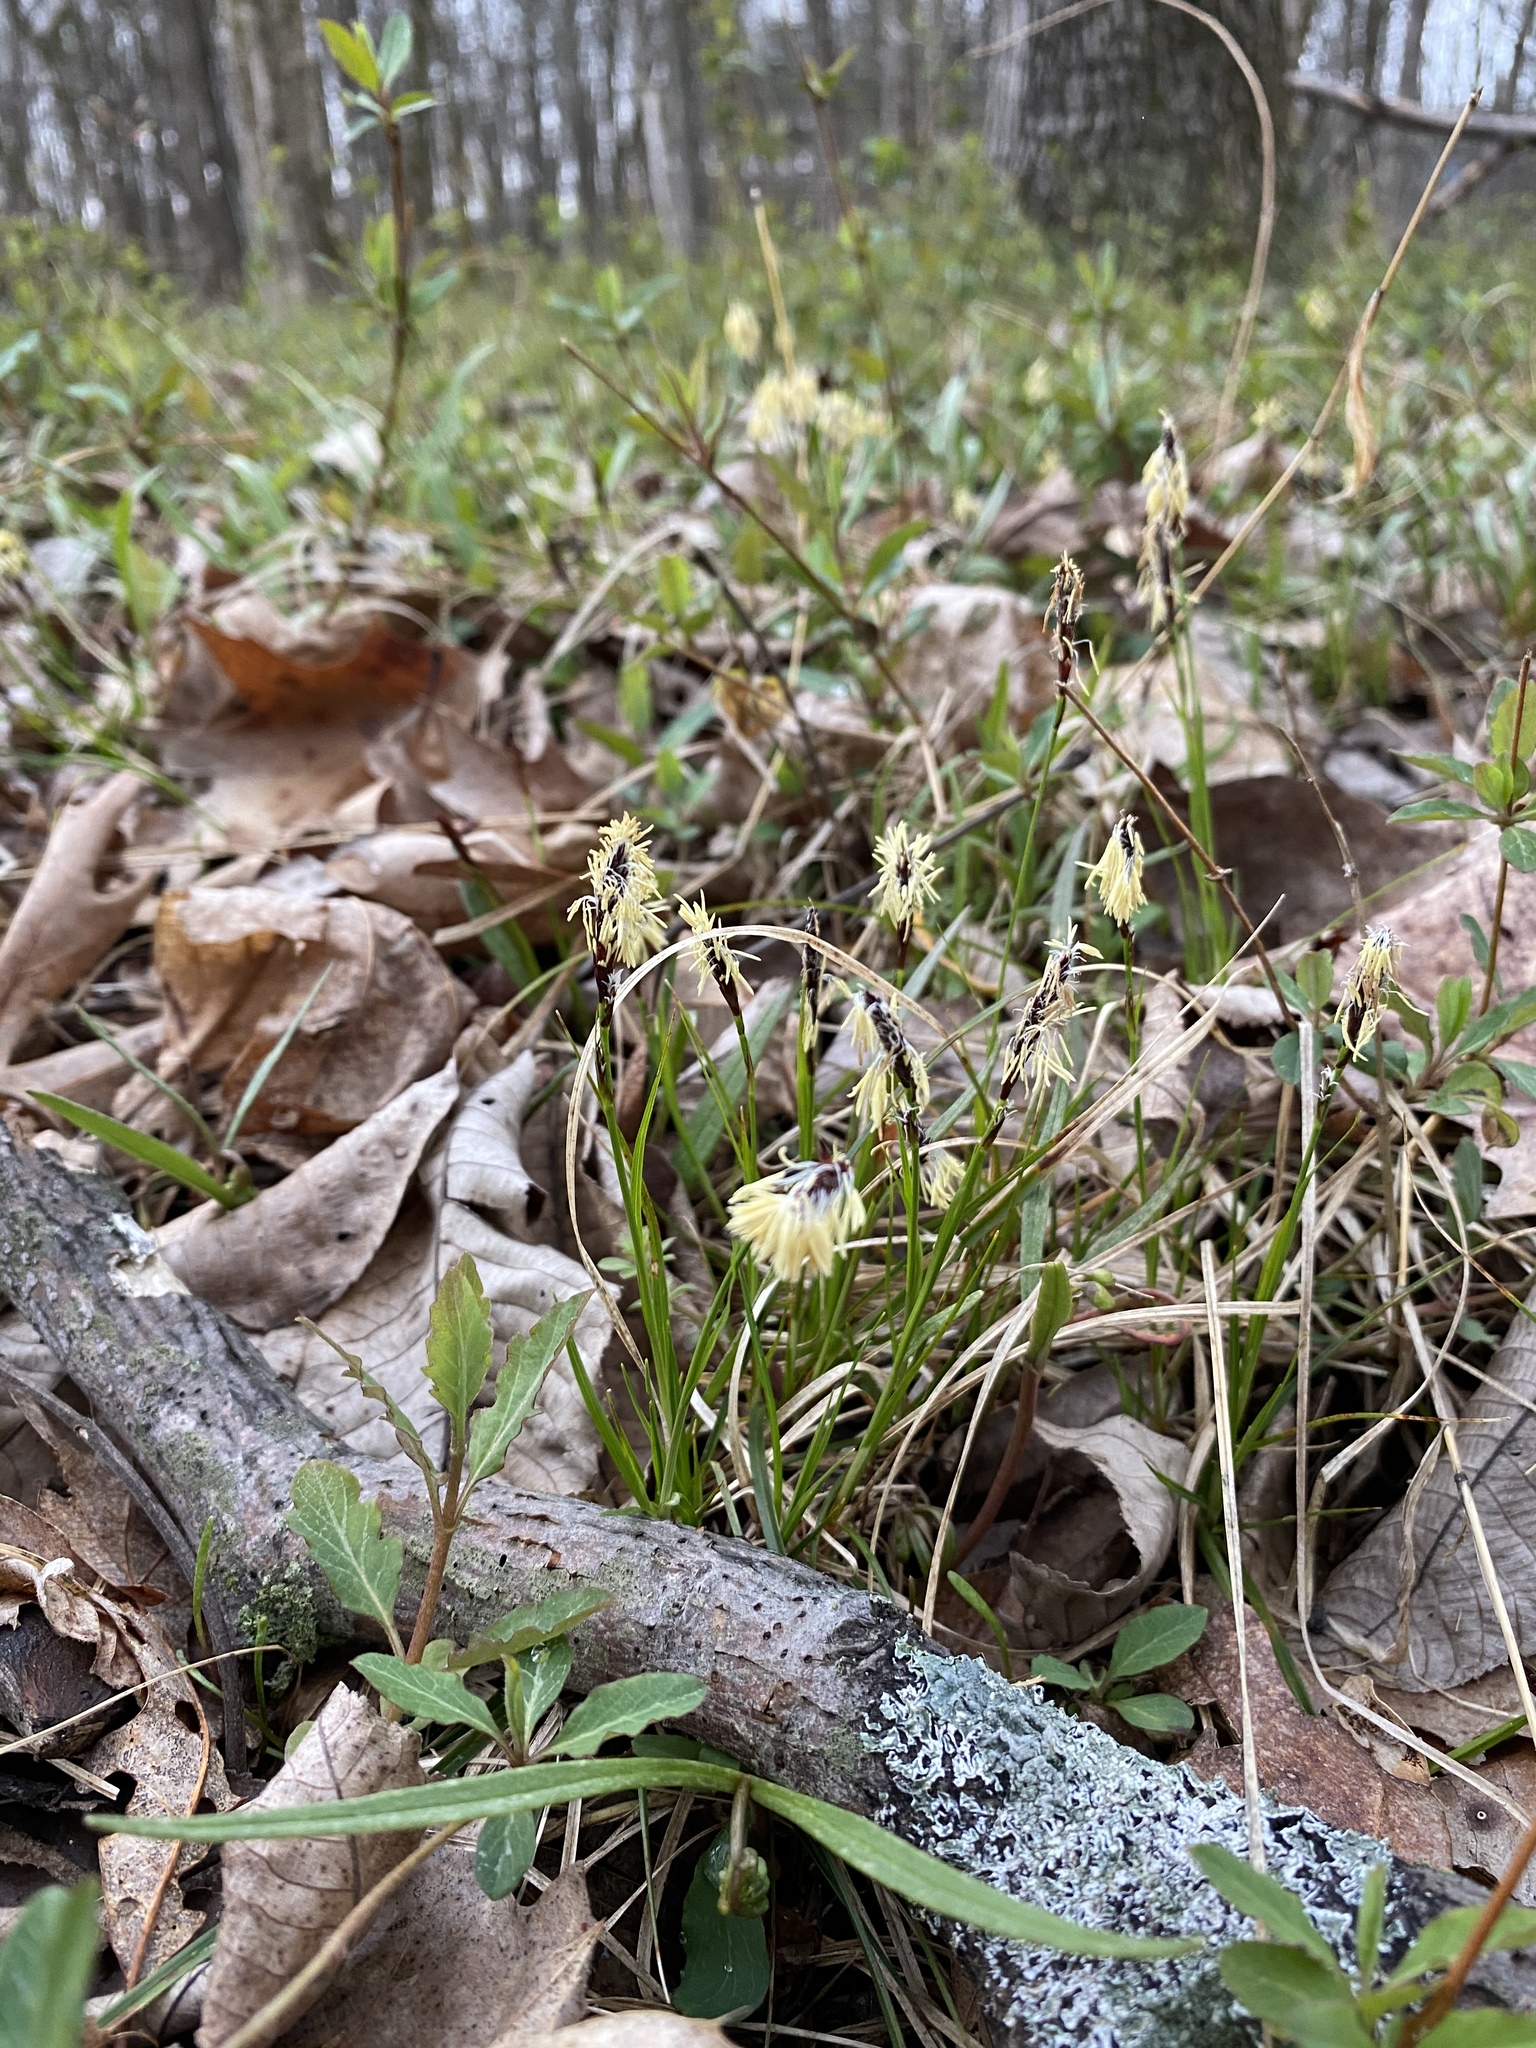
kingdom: Plantae
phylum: Tracheophyta
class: Liliopsida
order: Poales
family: Cyperaceae
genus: Carex
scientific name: Carex pensylvanica
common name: Common oak sedge
